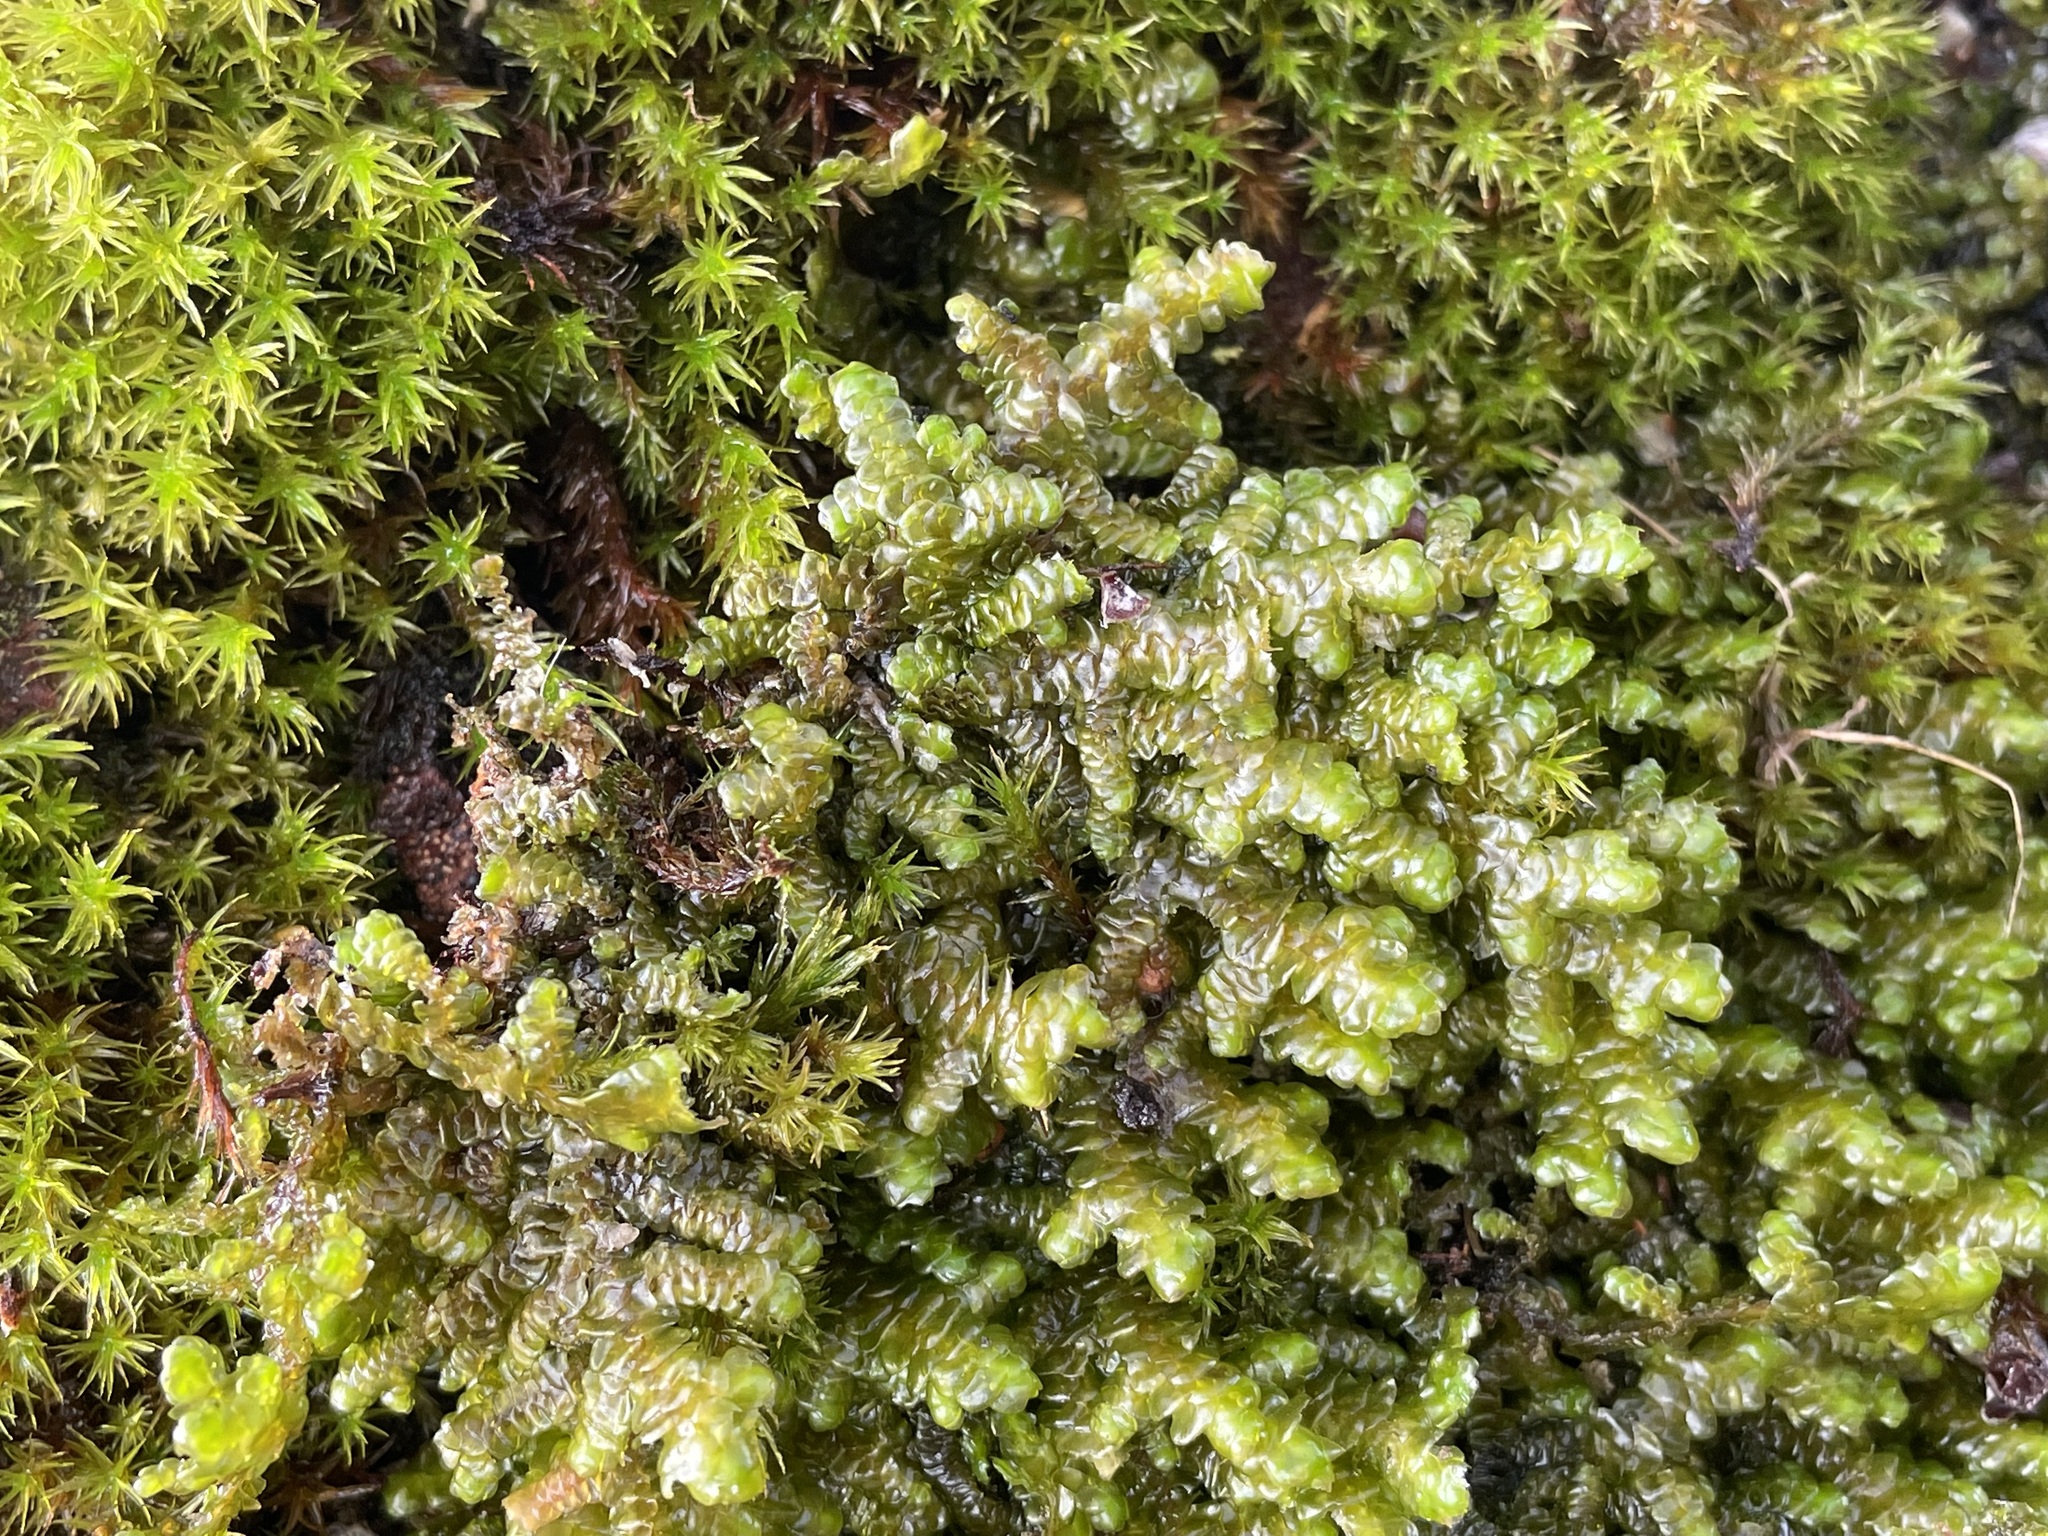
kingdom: Plantae
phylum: Marchantiophyta
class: Jungermanniopsida
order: Porellales
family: Porellaceae
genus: Porella
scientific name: Porella navicularis
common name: Tree ruffle liverwort
